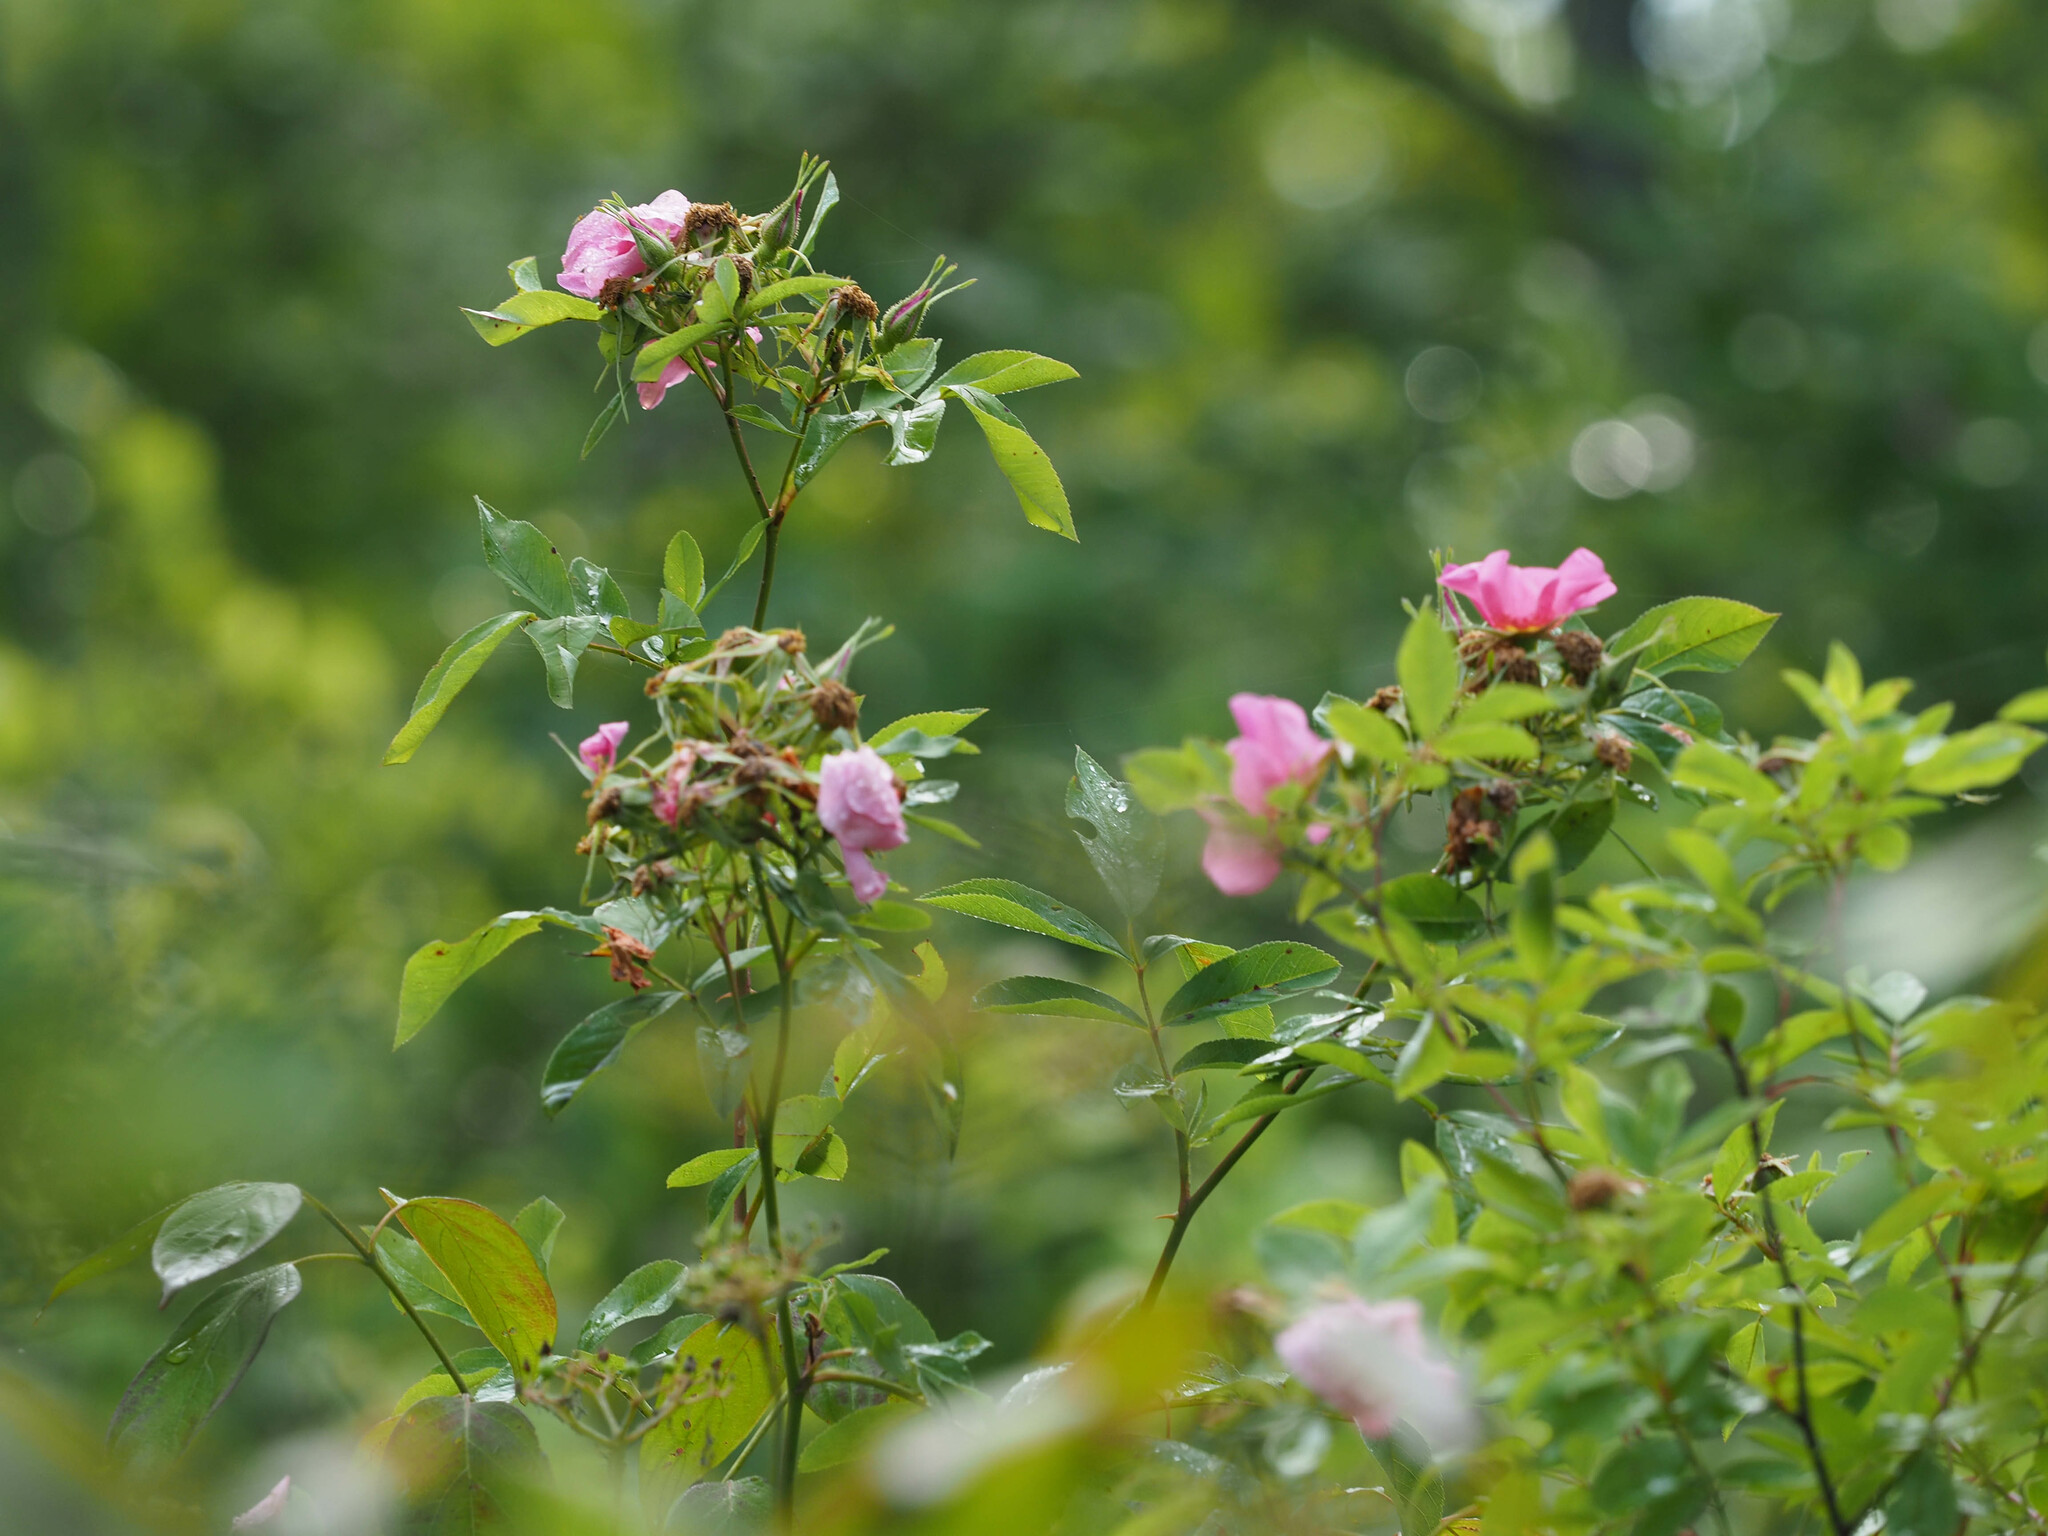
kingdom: Plantae
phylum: Tracheophyta
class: Magnoliopsida
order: Rosales
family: Rosaceae
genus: Rosa
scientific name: Rosa palustris
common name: Swamp rose
